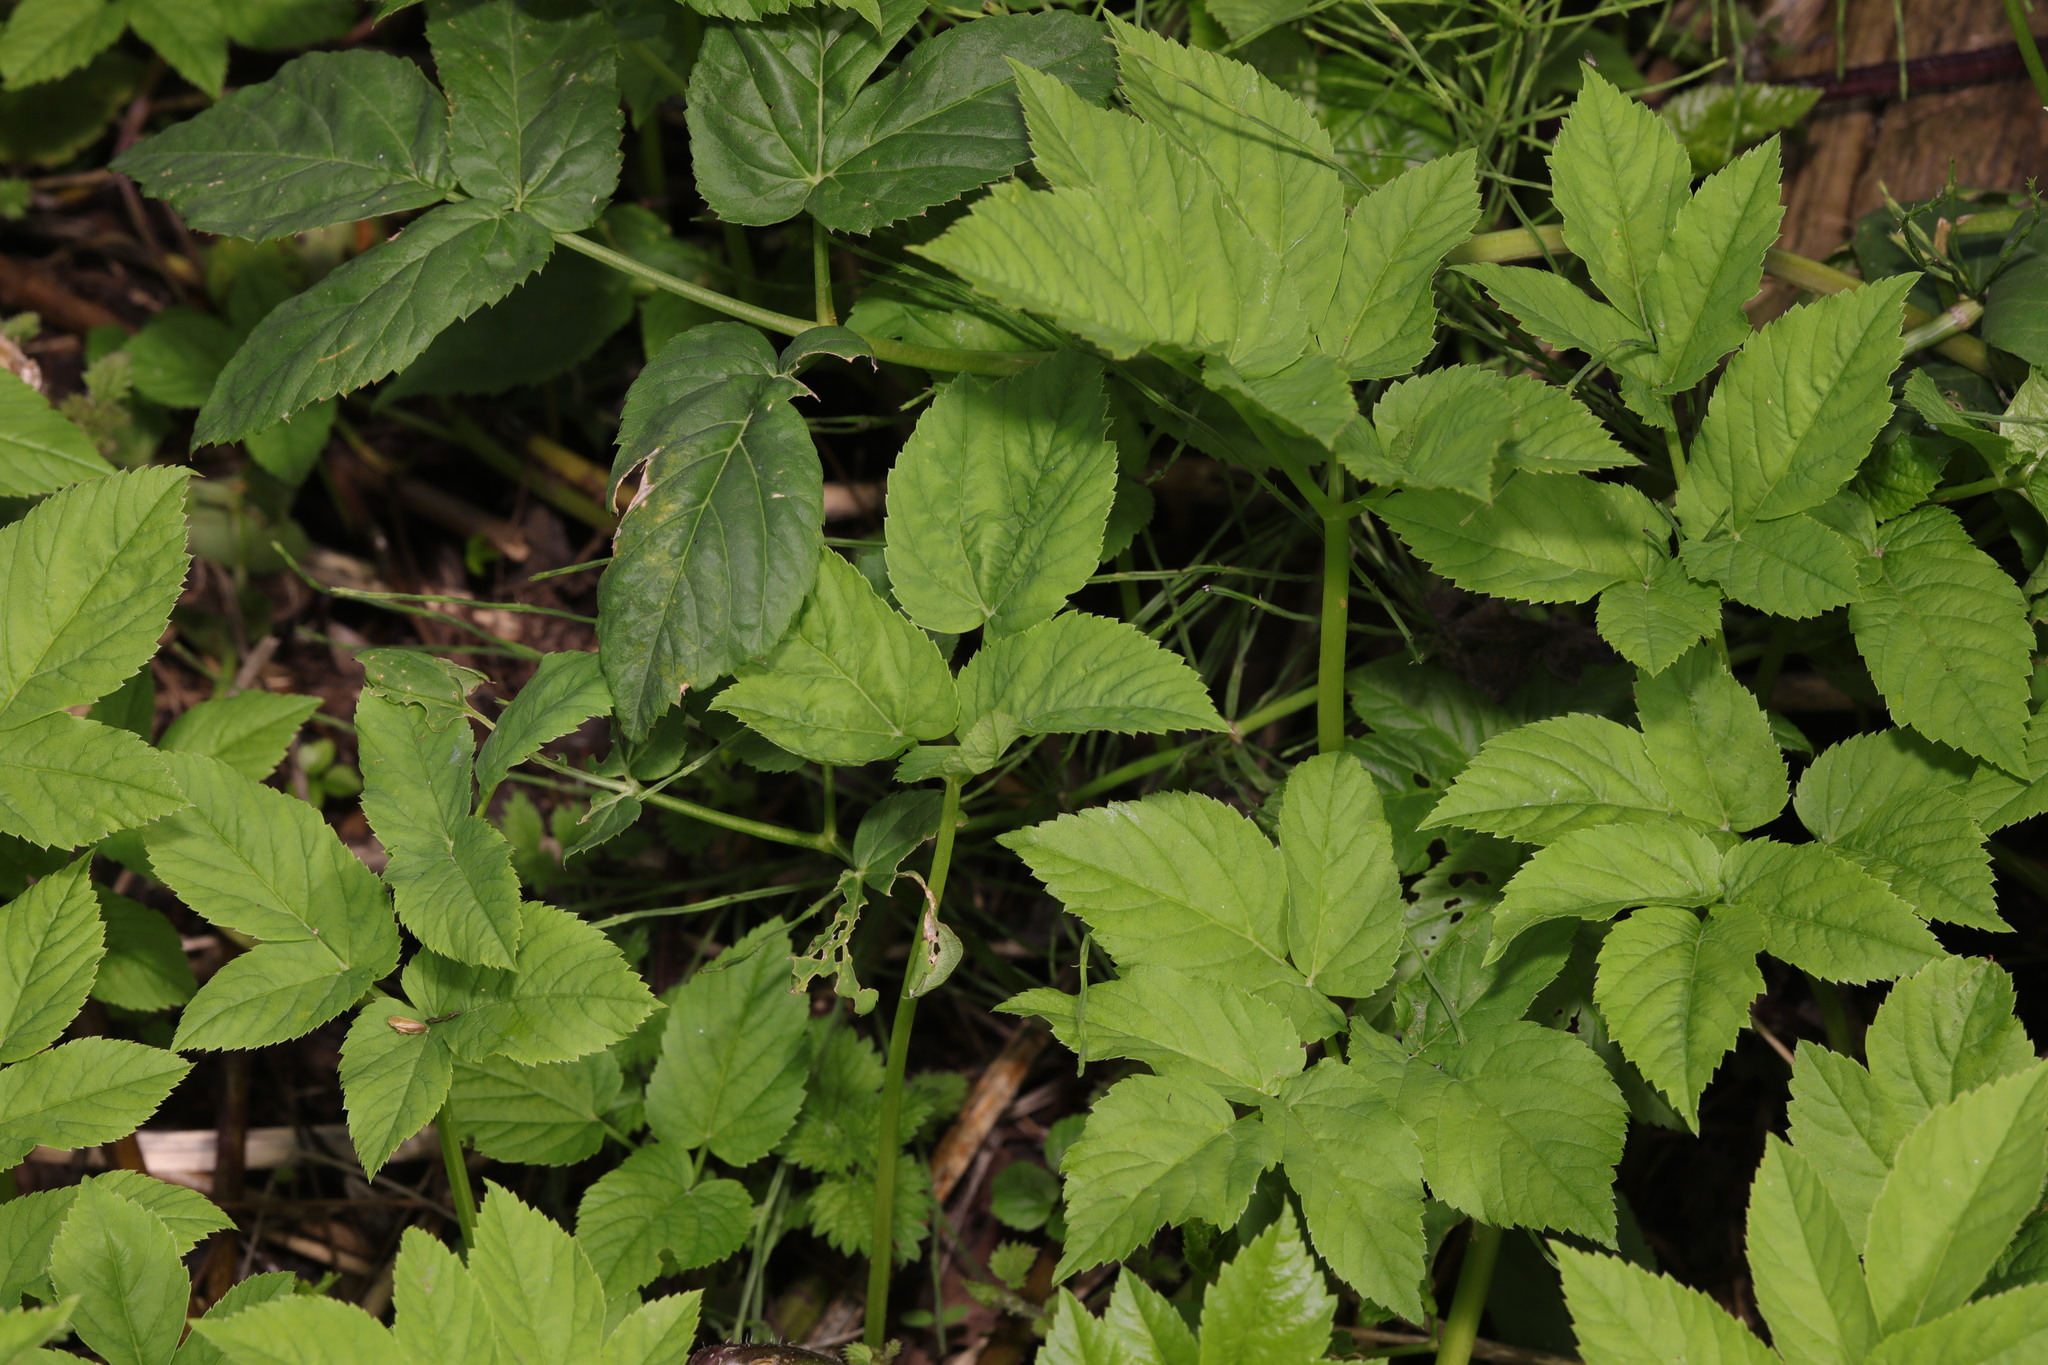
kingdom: Plantae
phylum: Tracheophyta
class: Magnoliopsida
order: Apiales
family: Apiaceae
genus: Aegopodium
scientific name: Aegopodium podagraria
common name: Ground-elder
